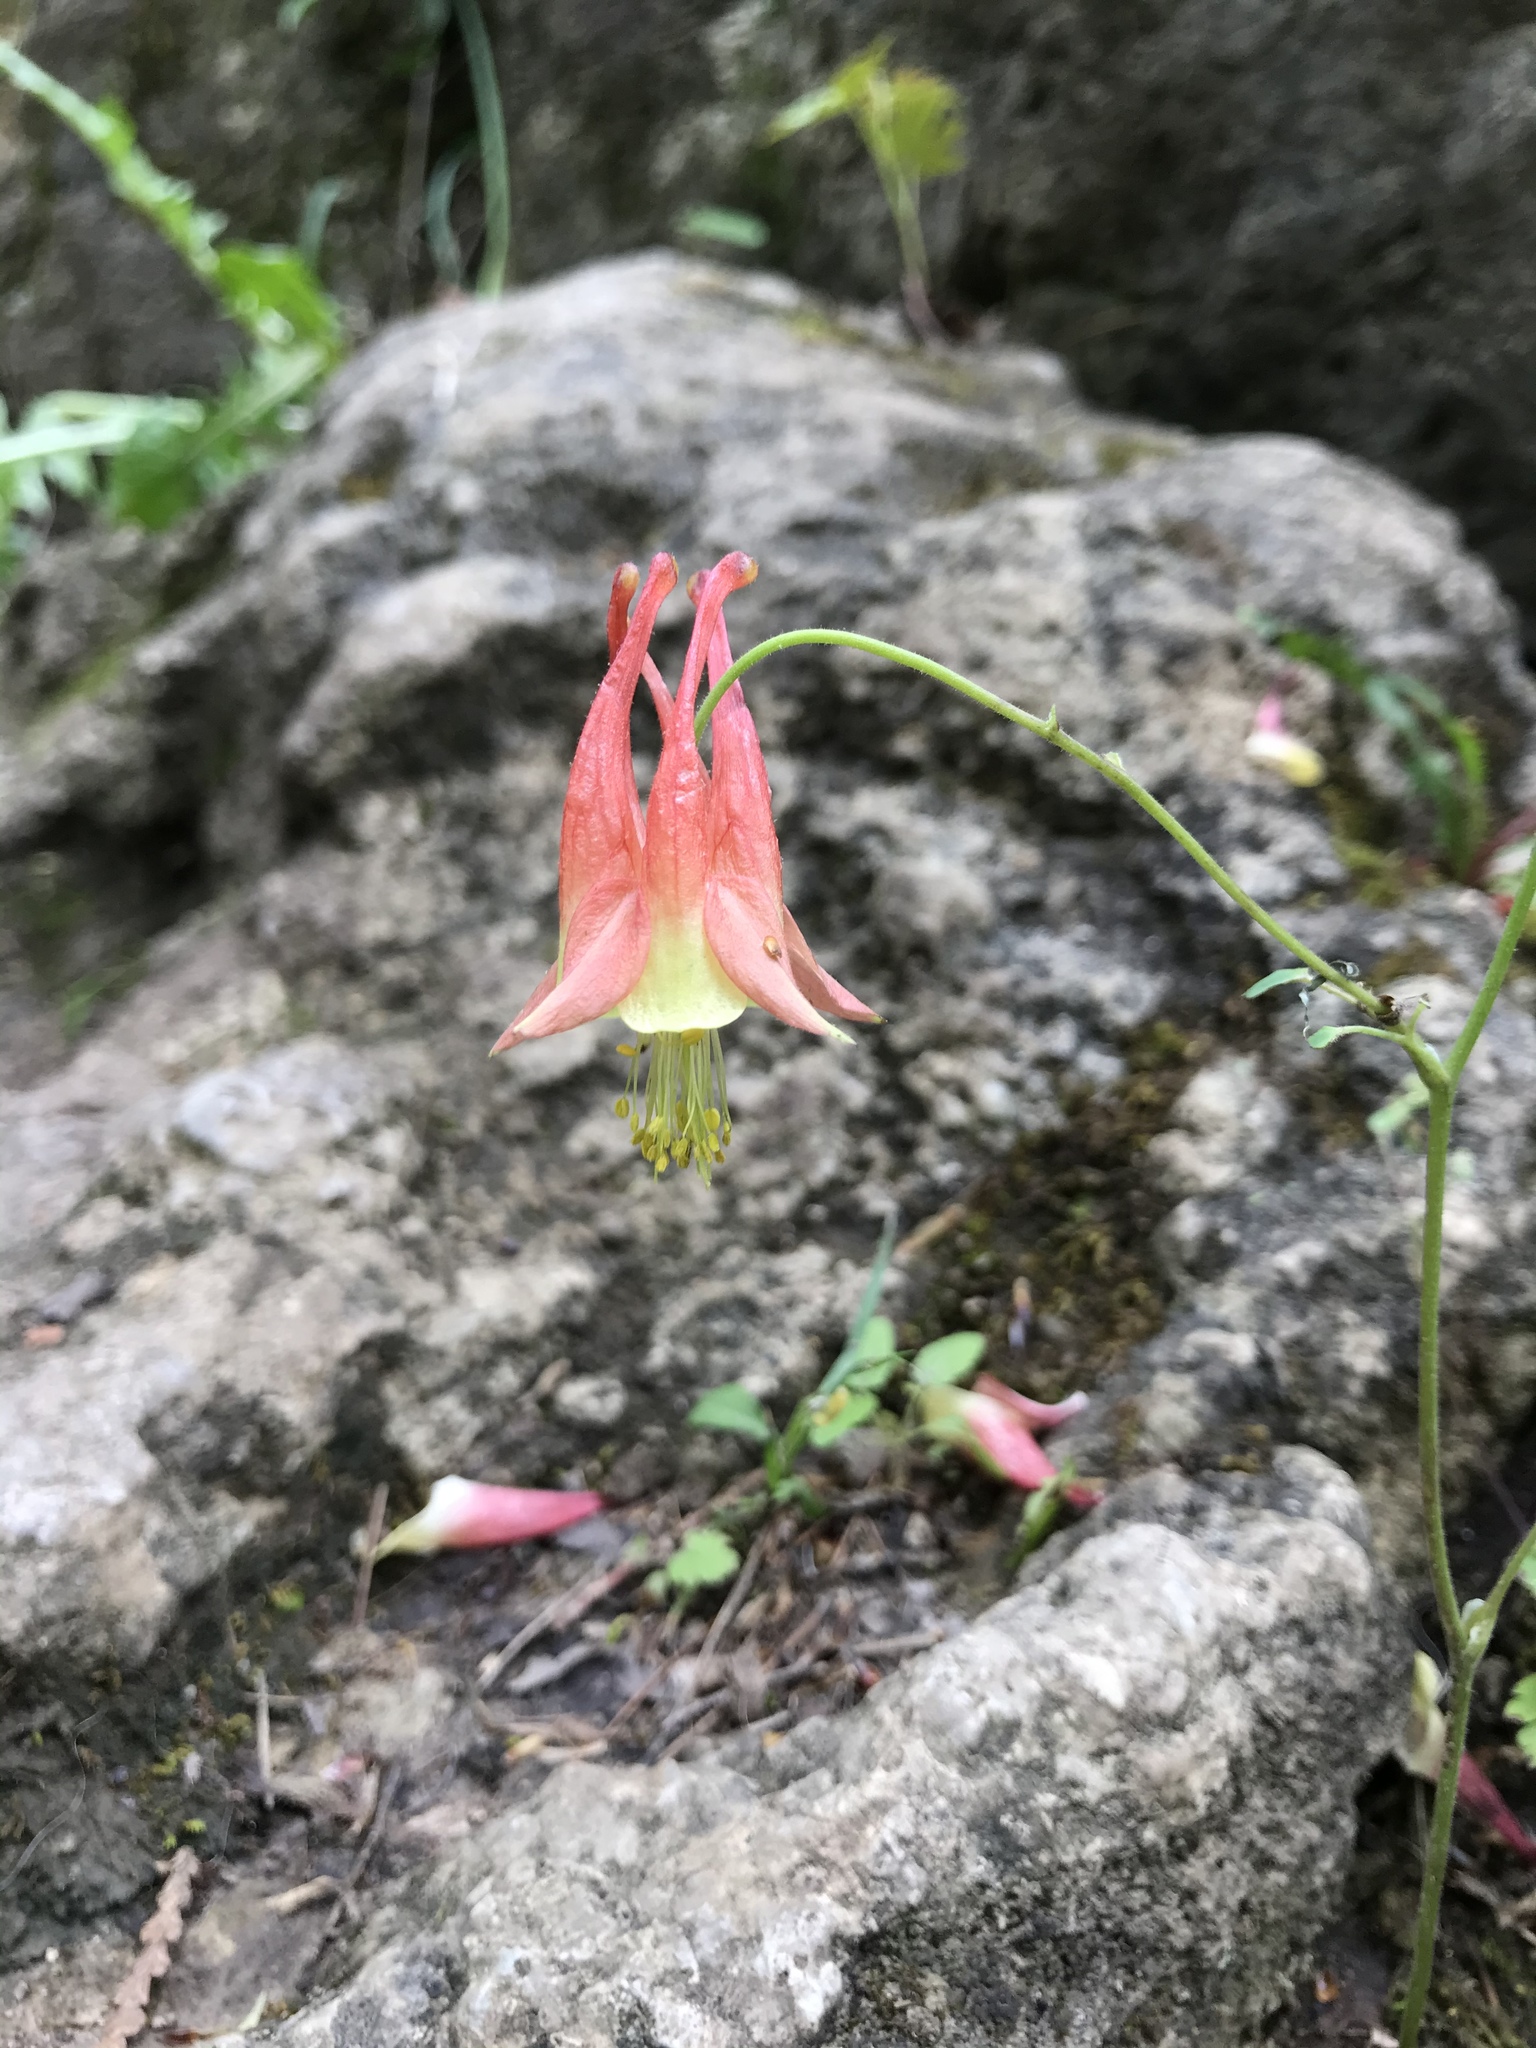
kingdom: Plantae
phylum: Tracheophyta
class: Magnoliopsida
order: Ranunculales
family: Ranunculaceae
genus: Aquilegia
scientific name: Aquilegia canadensis
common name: American columbine
